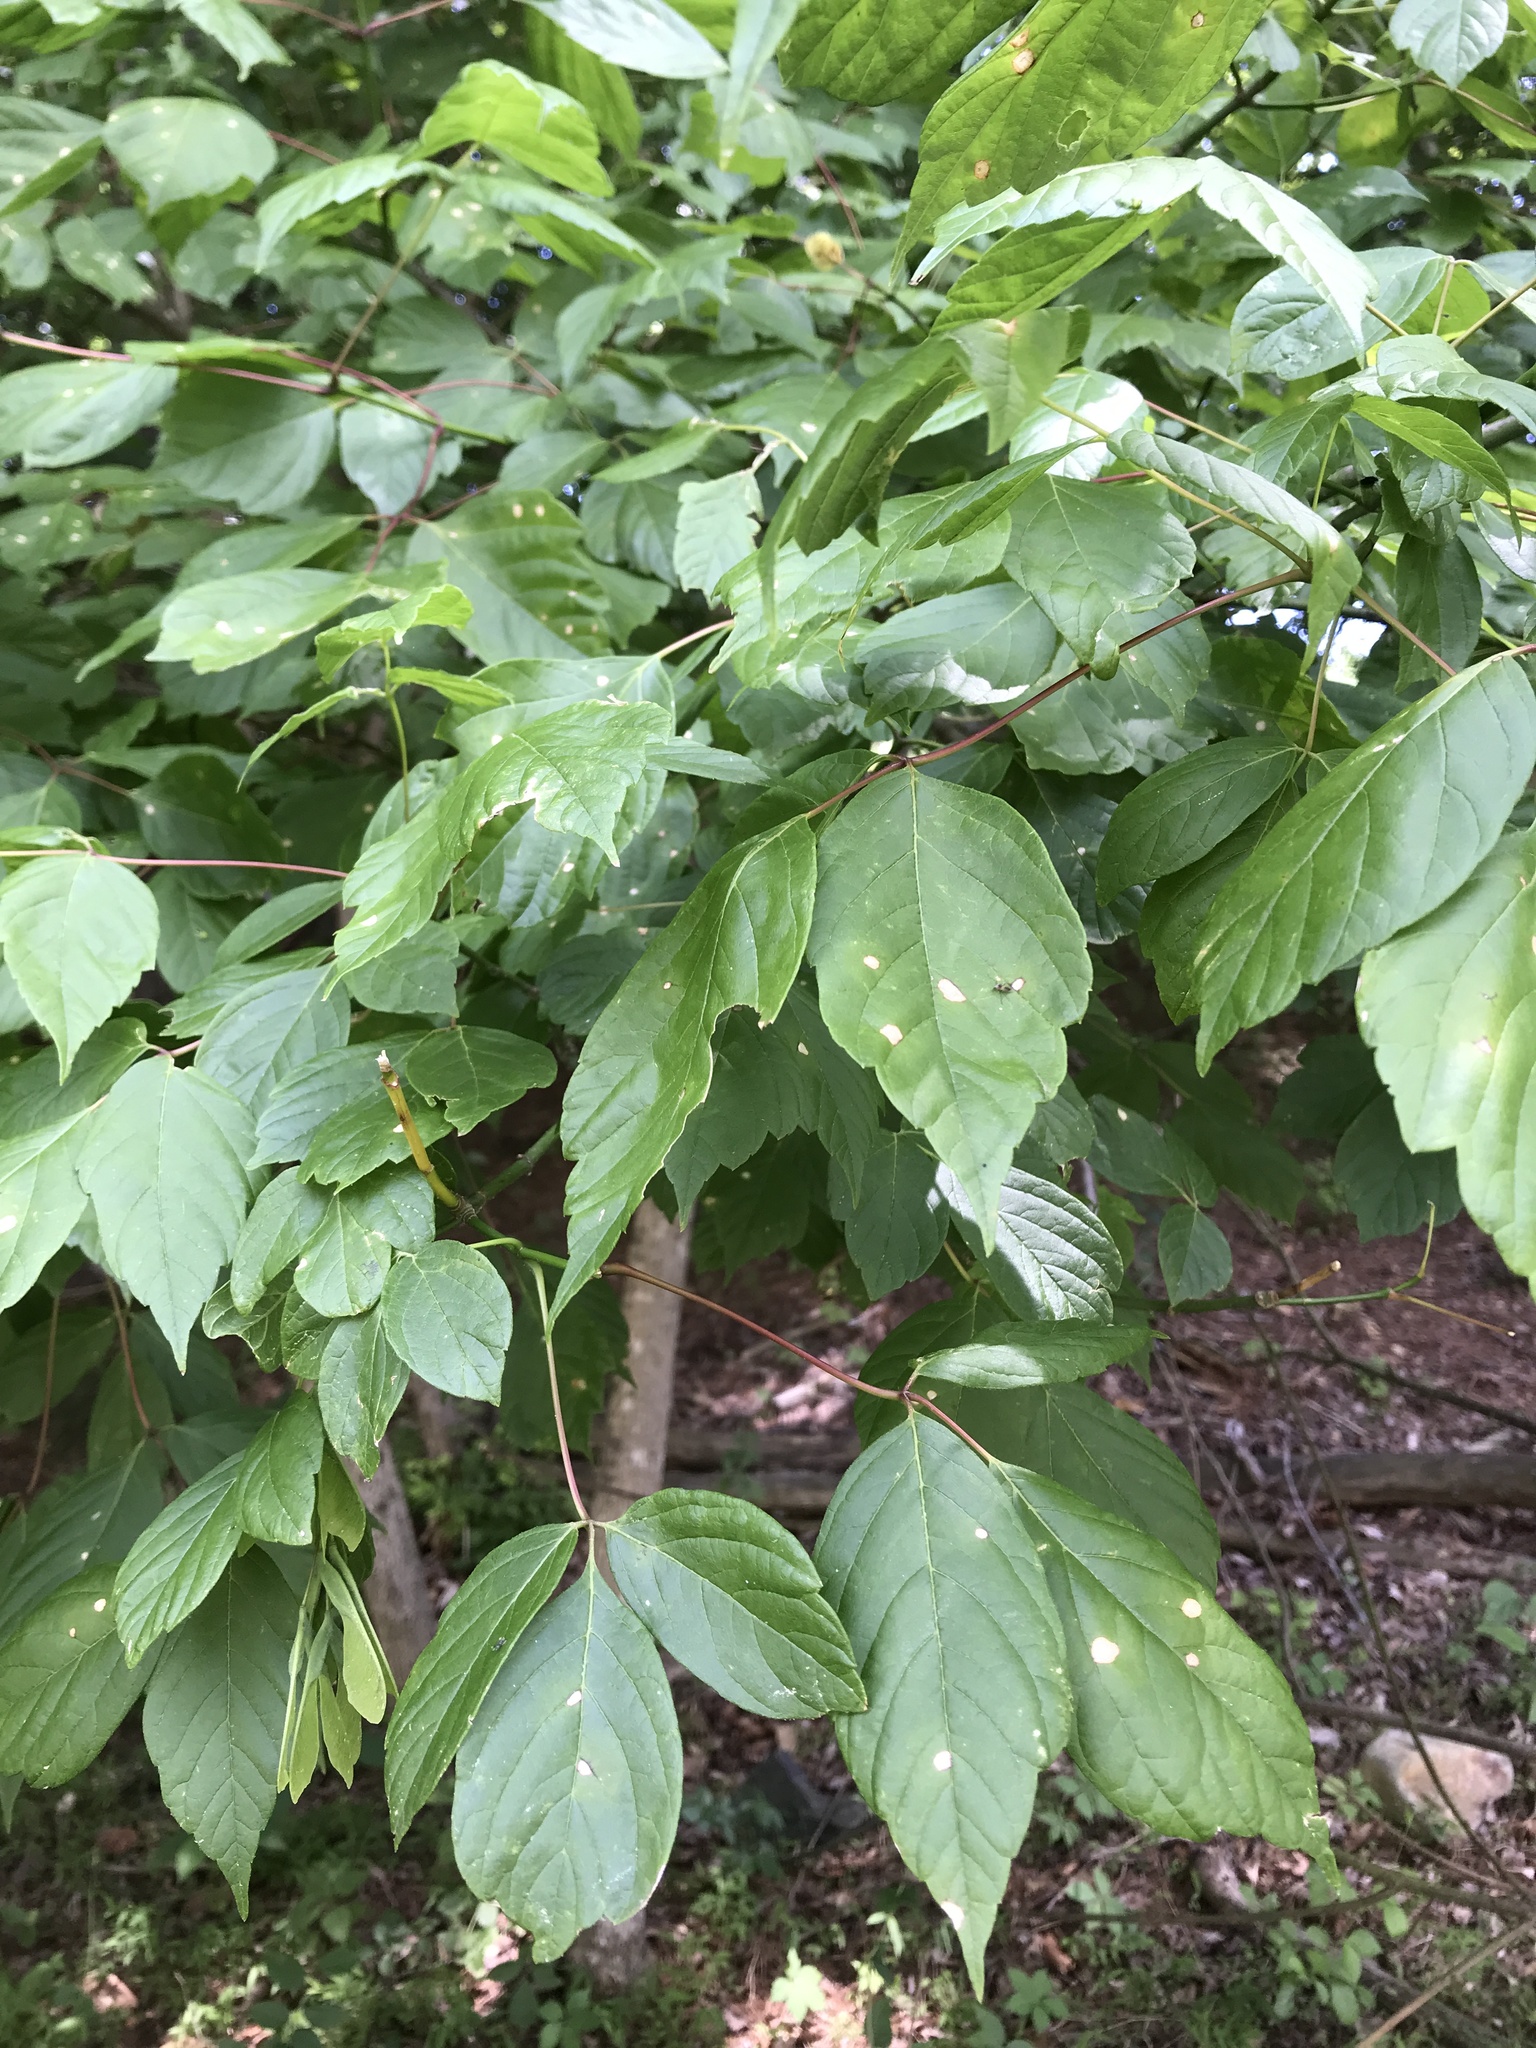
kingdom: Plantae
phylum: Tracheophyta
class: Magnoliopsida
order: Sapindales
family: Sapindaceae
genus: Acer
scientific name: Acer negundo
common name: Ashleaf maple
